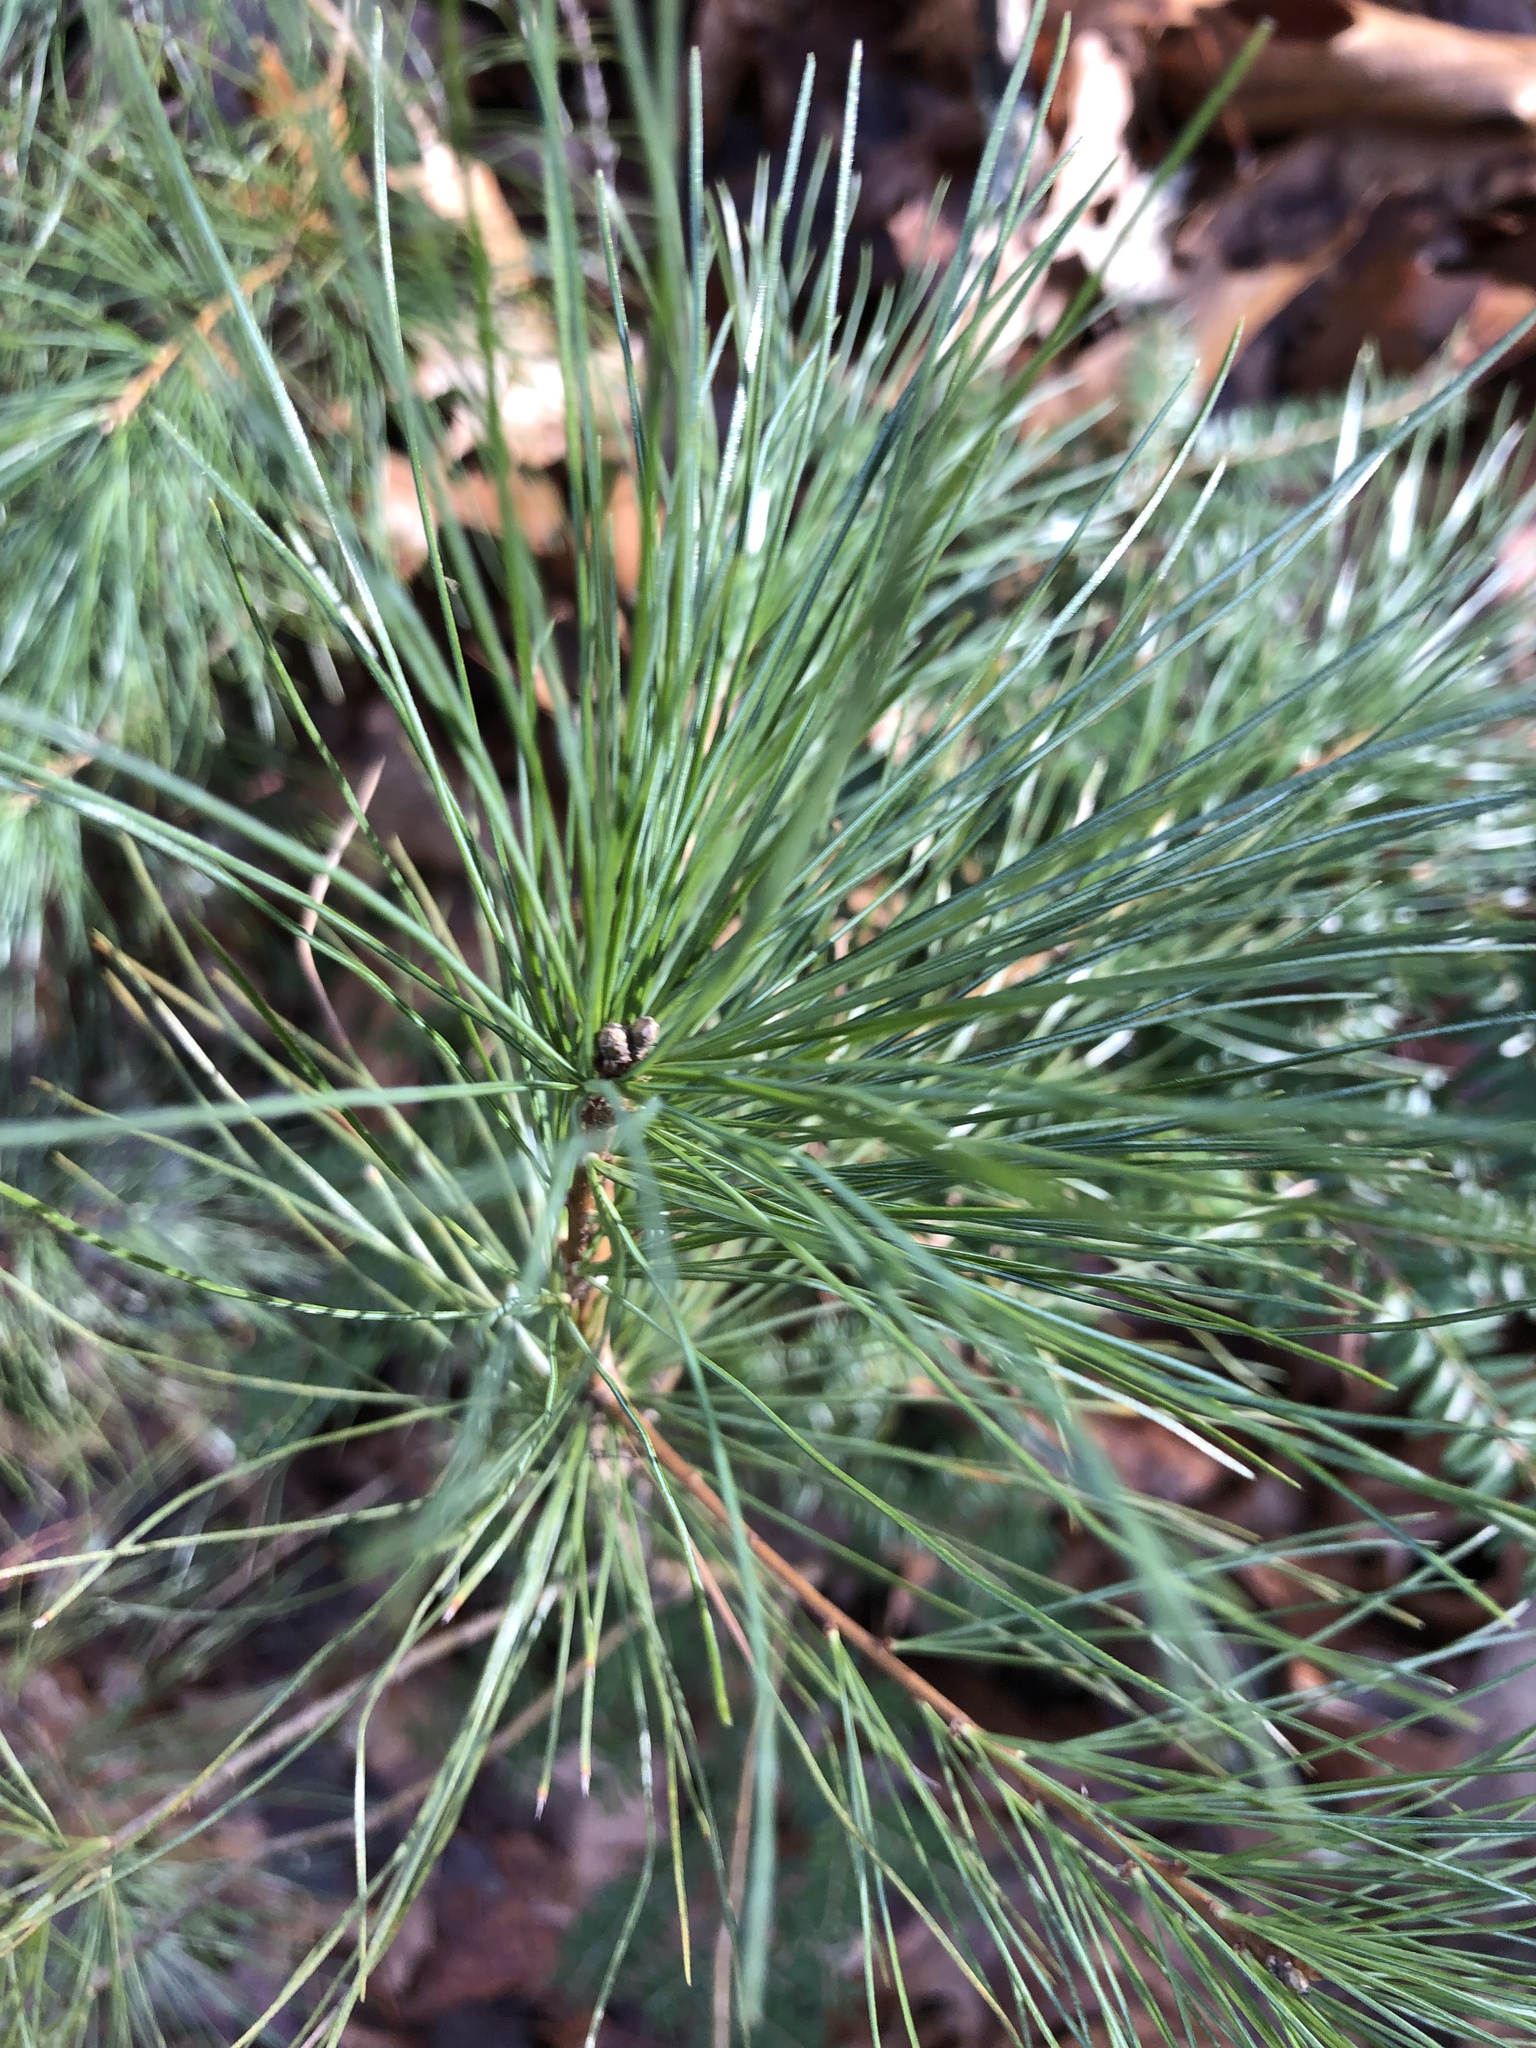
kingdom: Plantae
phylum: Tracheophyta
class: Pinopsida
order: Pinales
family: Pinaceae
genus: Pinus
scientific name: Pinus strobus
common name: Weymouth pine
